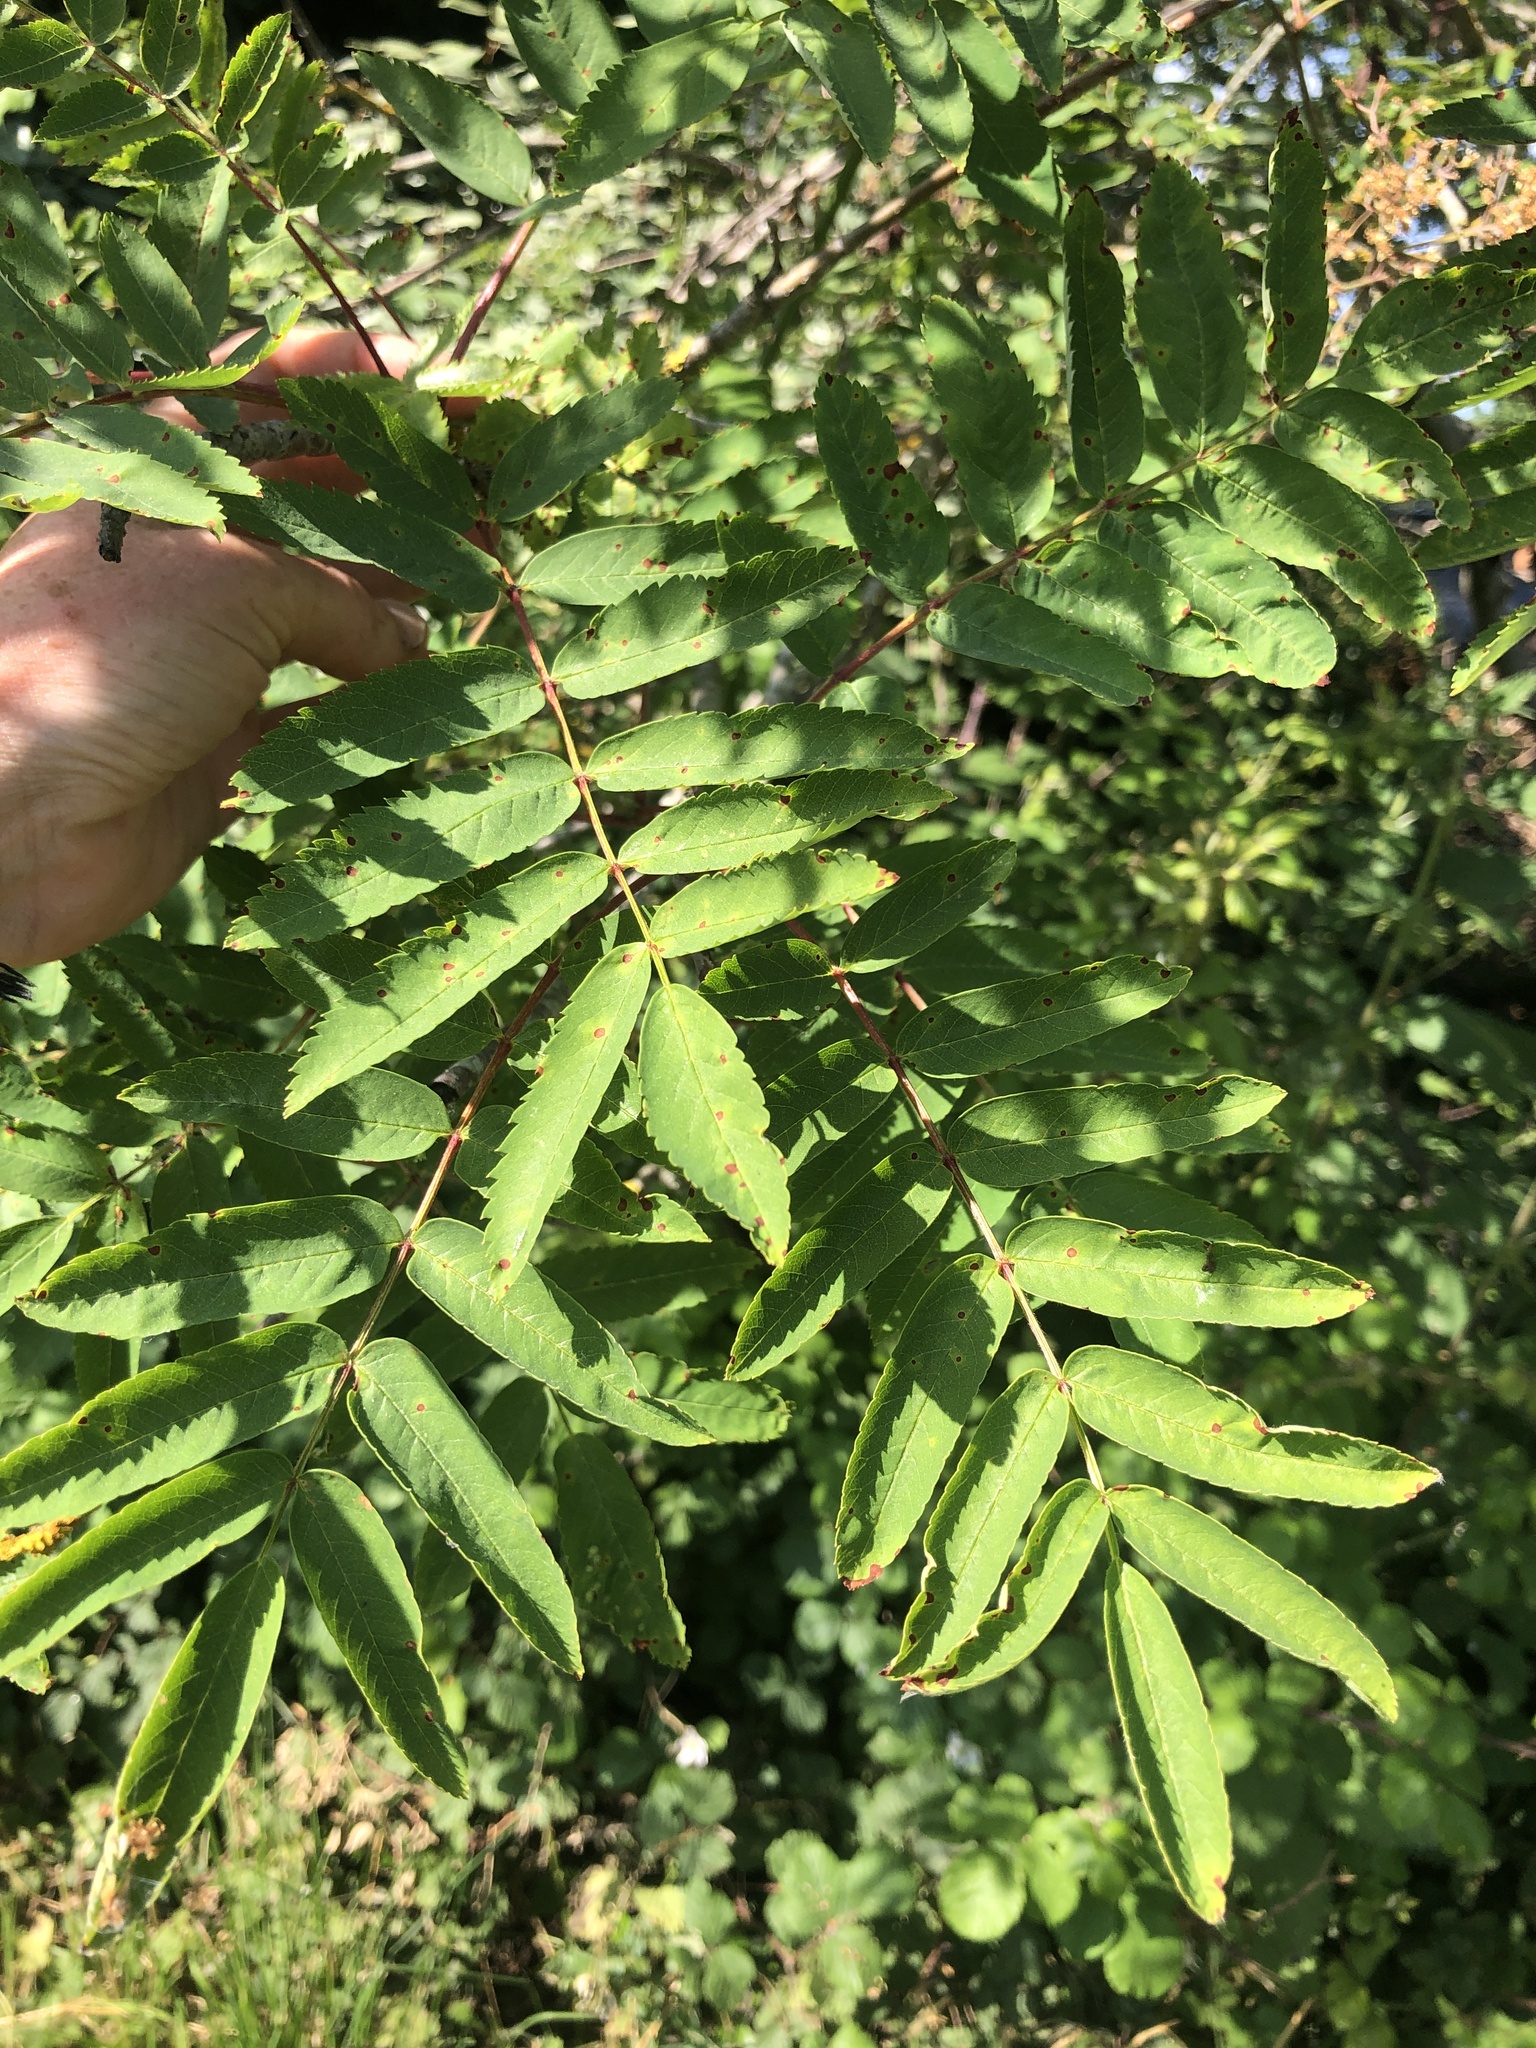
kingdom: Plantae
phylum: Tracheophyta
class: Magnoliopsida
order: Rosales
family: Rosaceae
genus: Sorbus
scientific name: Sorbus aucuparia
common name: Rowan
